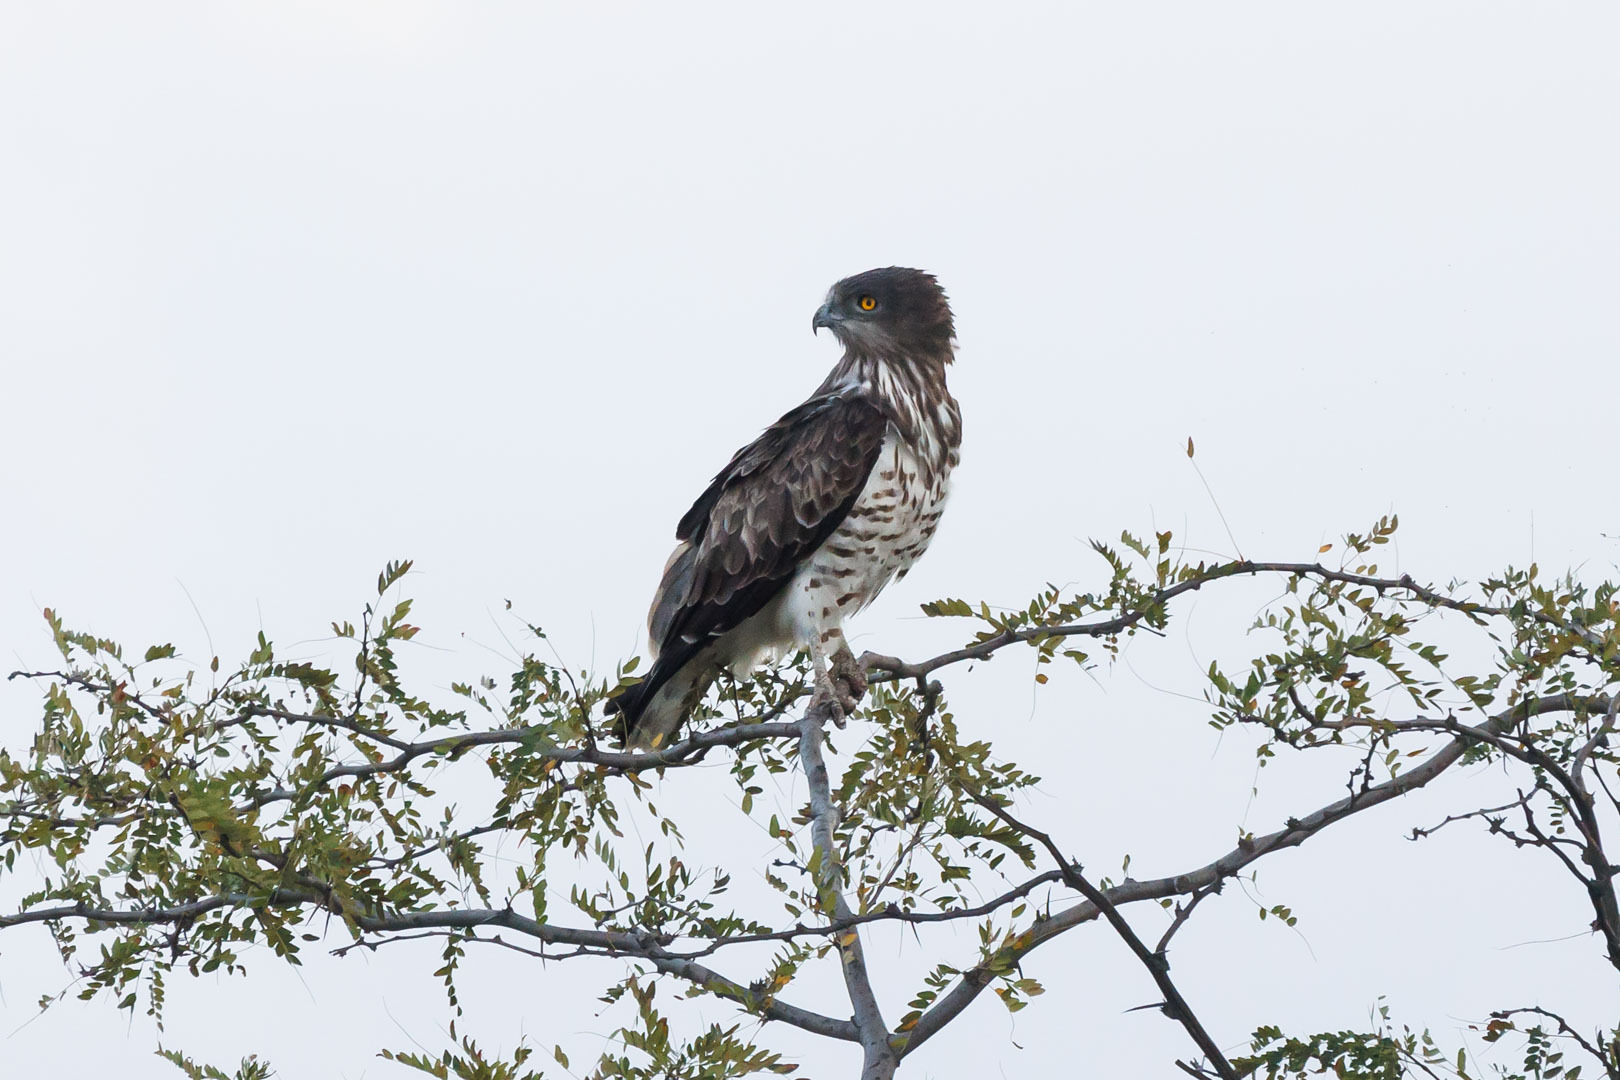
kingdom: Animalia
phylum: Chordata
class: Aves
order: Accipitriformes
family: Accipitridae
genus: Circaetus
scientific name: Circaetus gallicus
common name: Short-toed snake eagle
